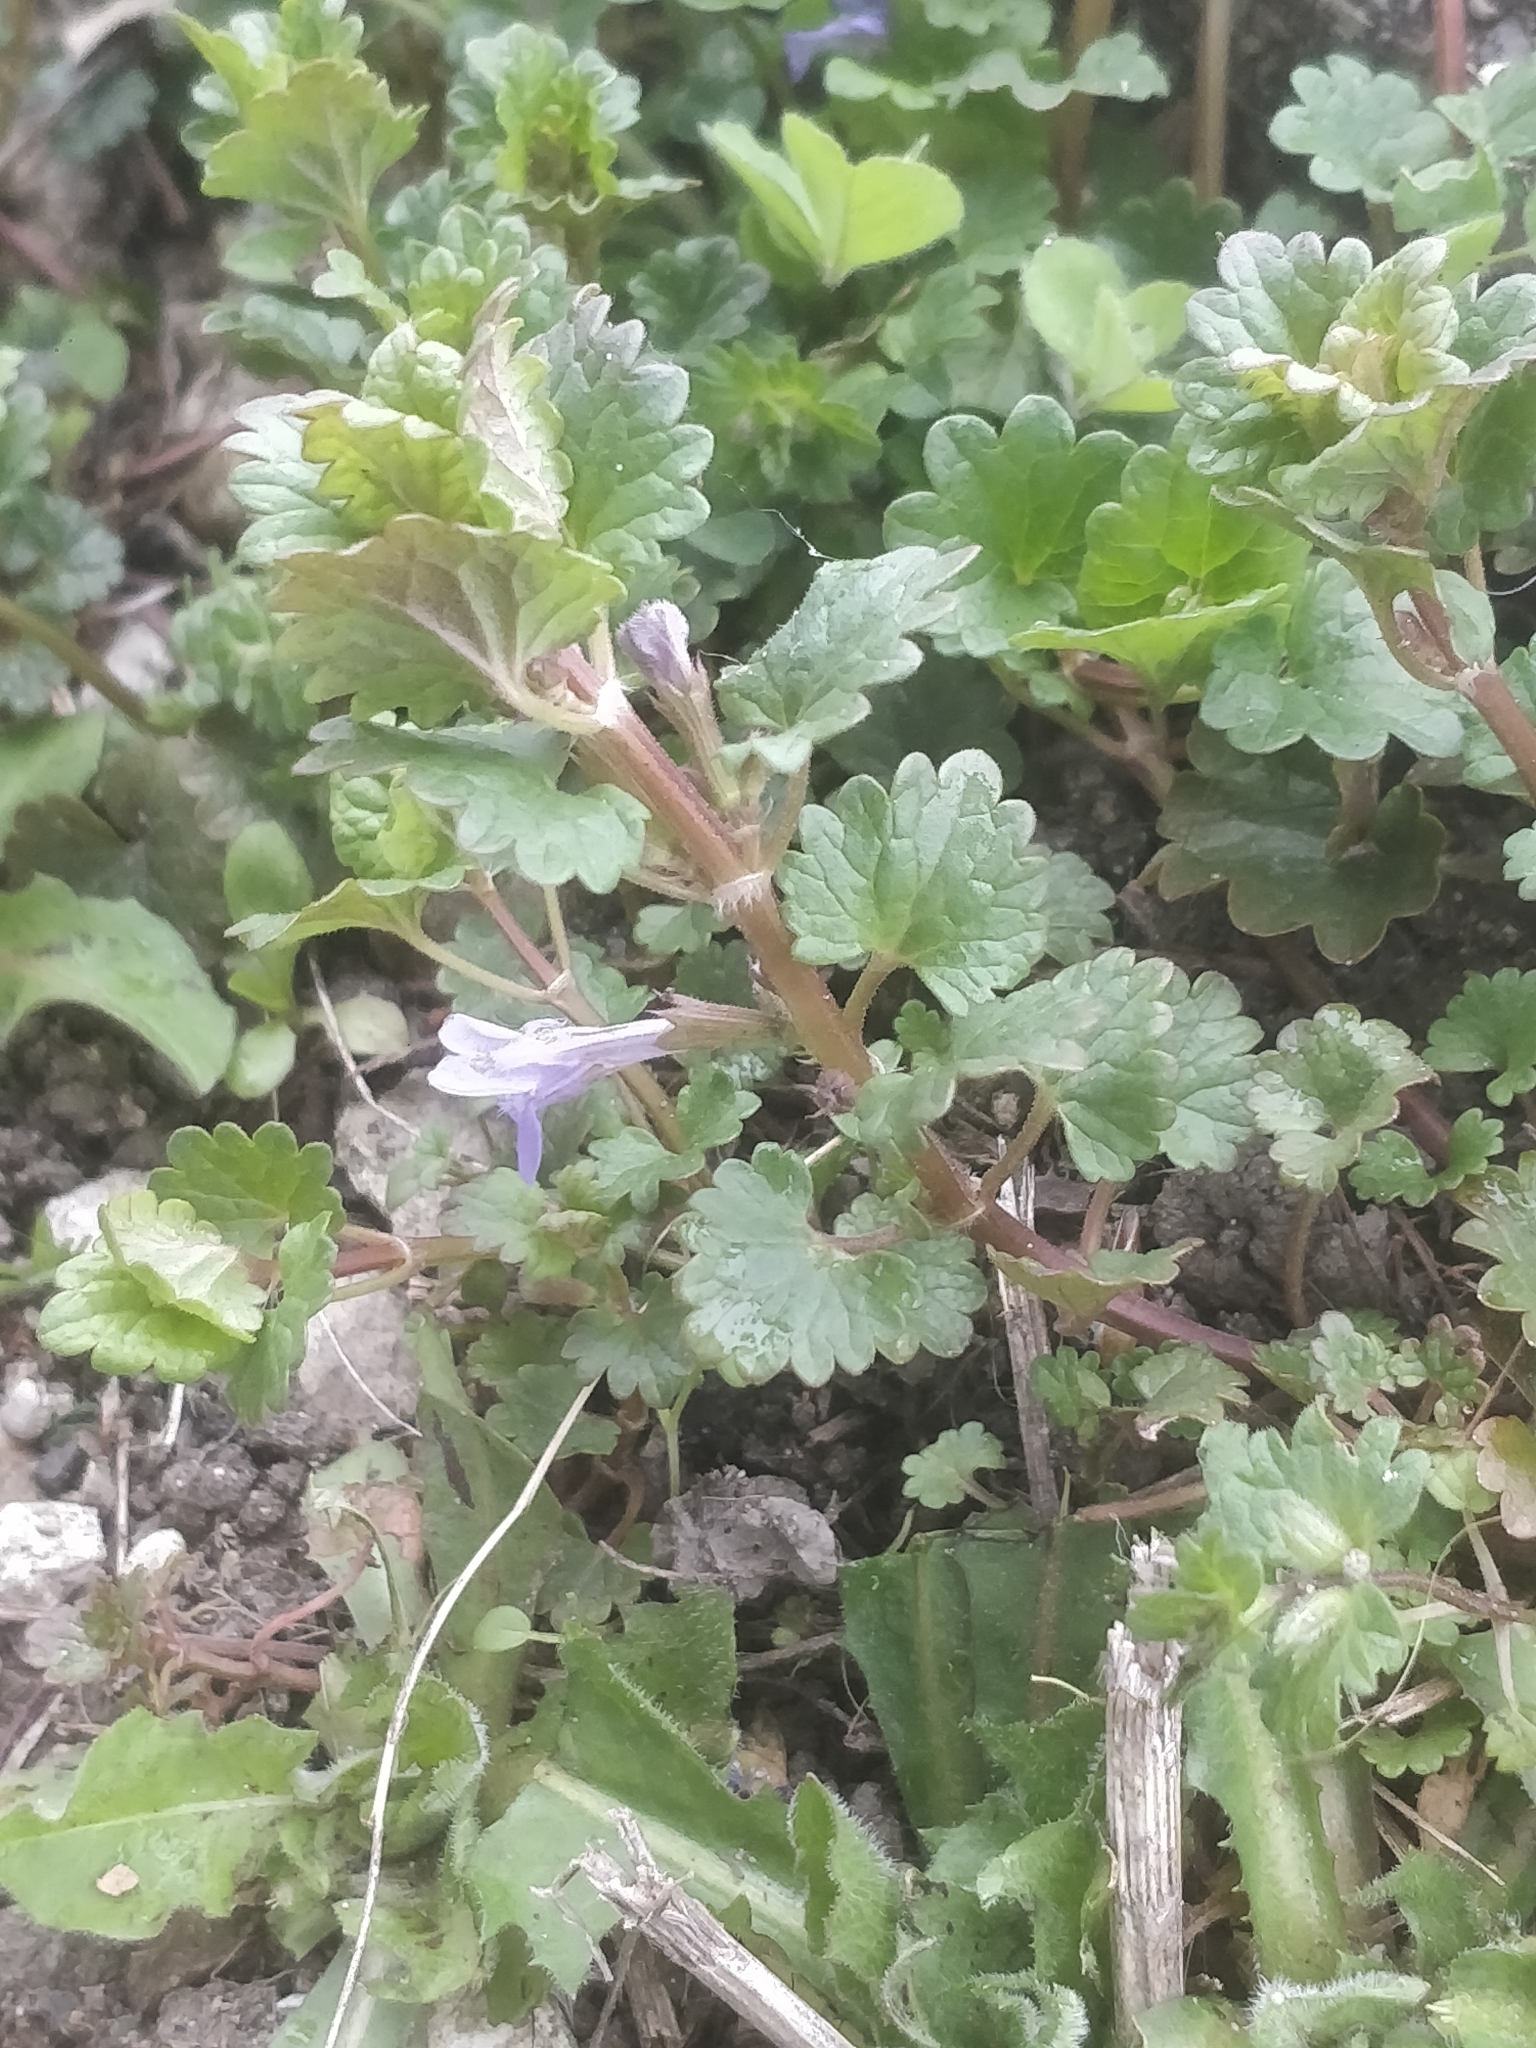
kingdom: Plantae
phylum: Tracheophyta
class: Magnoliopsida
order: Lamiales
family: Lamiaceae
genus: Glechoma
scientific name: Glechoma hederacea
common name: Ground ivy
